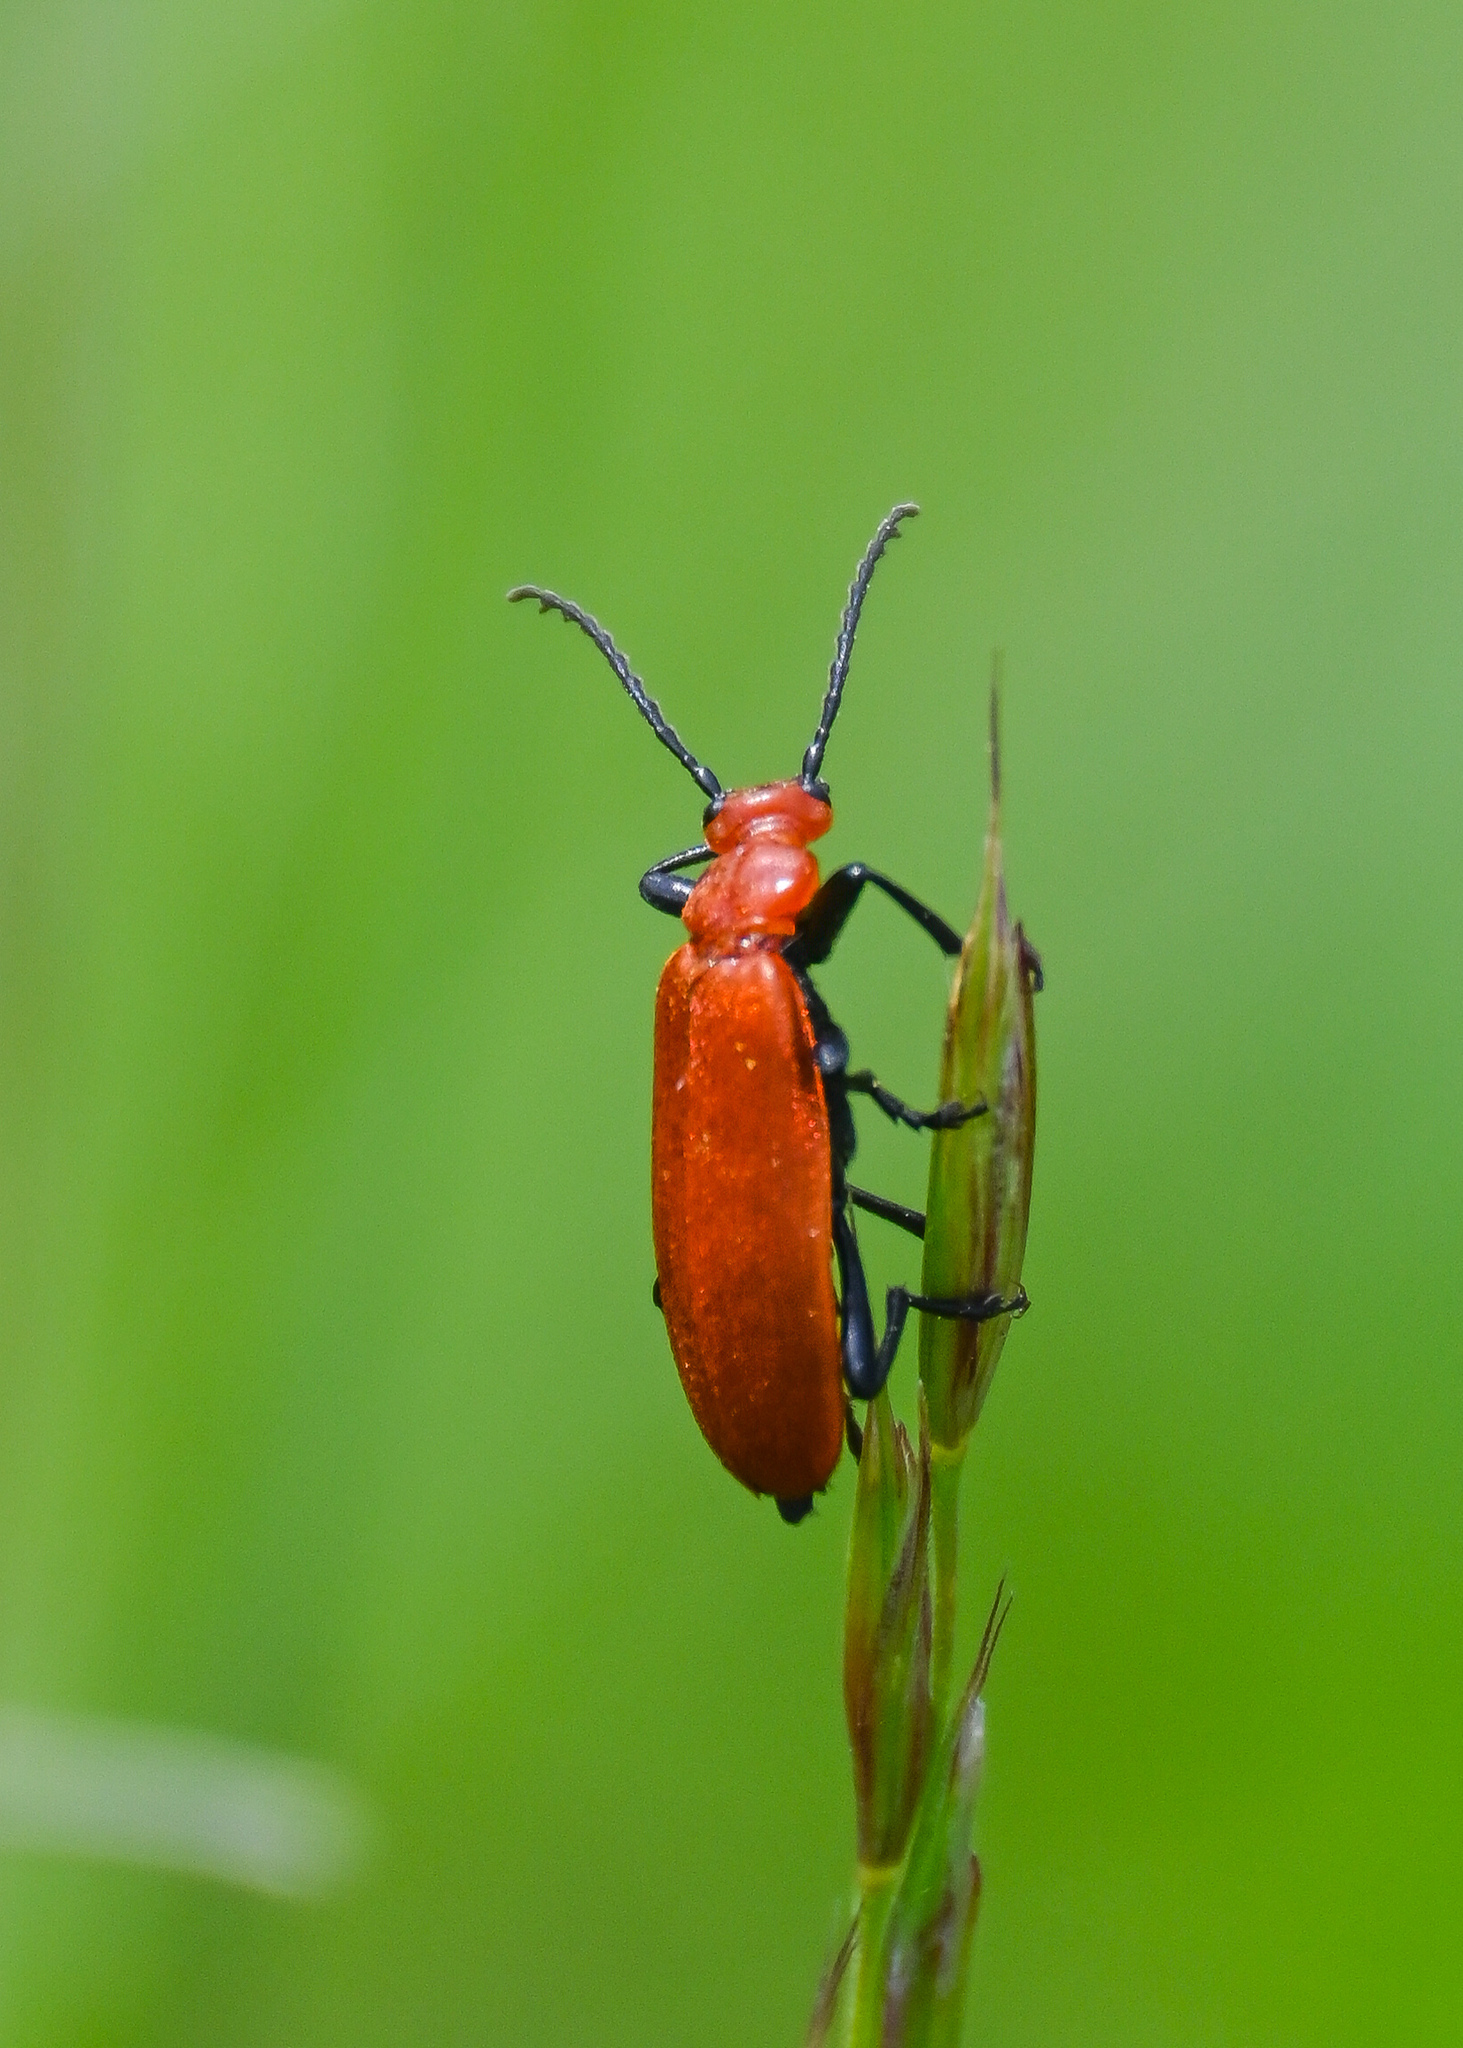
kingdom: Animalia
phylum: Arthropoda
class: Insecta
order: Coleoptera
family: Pyrochroidae
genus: Pyrochroa
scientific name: Pyrochroa serraticornis
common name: Red-headed cardinal beetle
